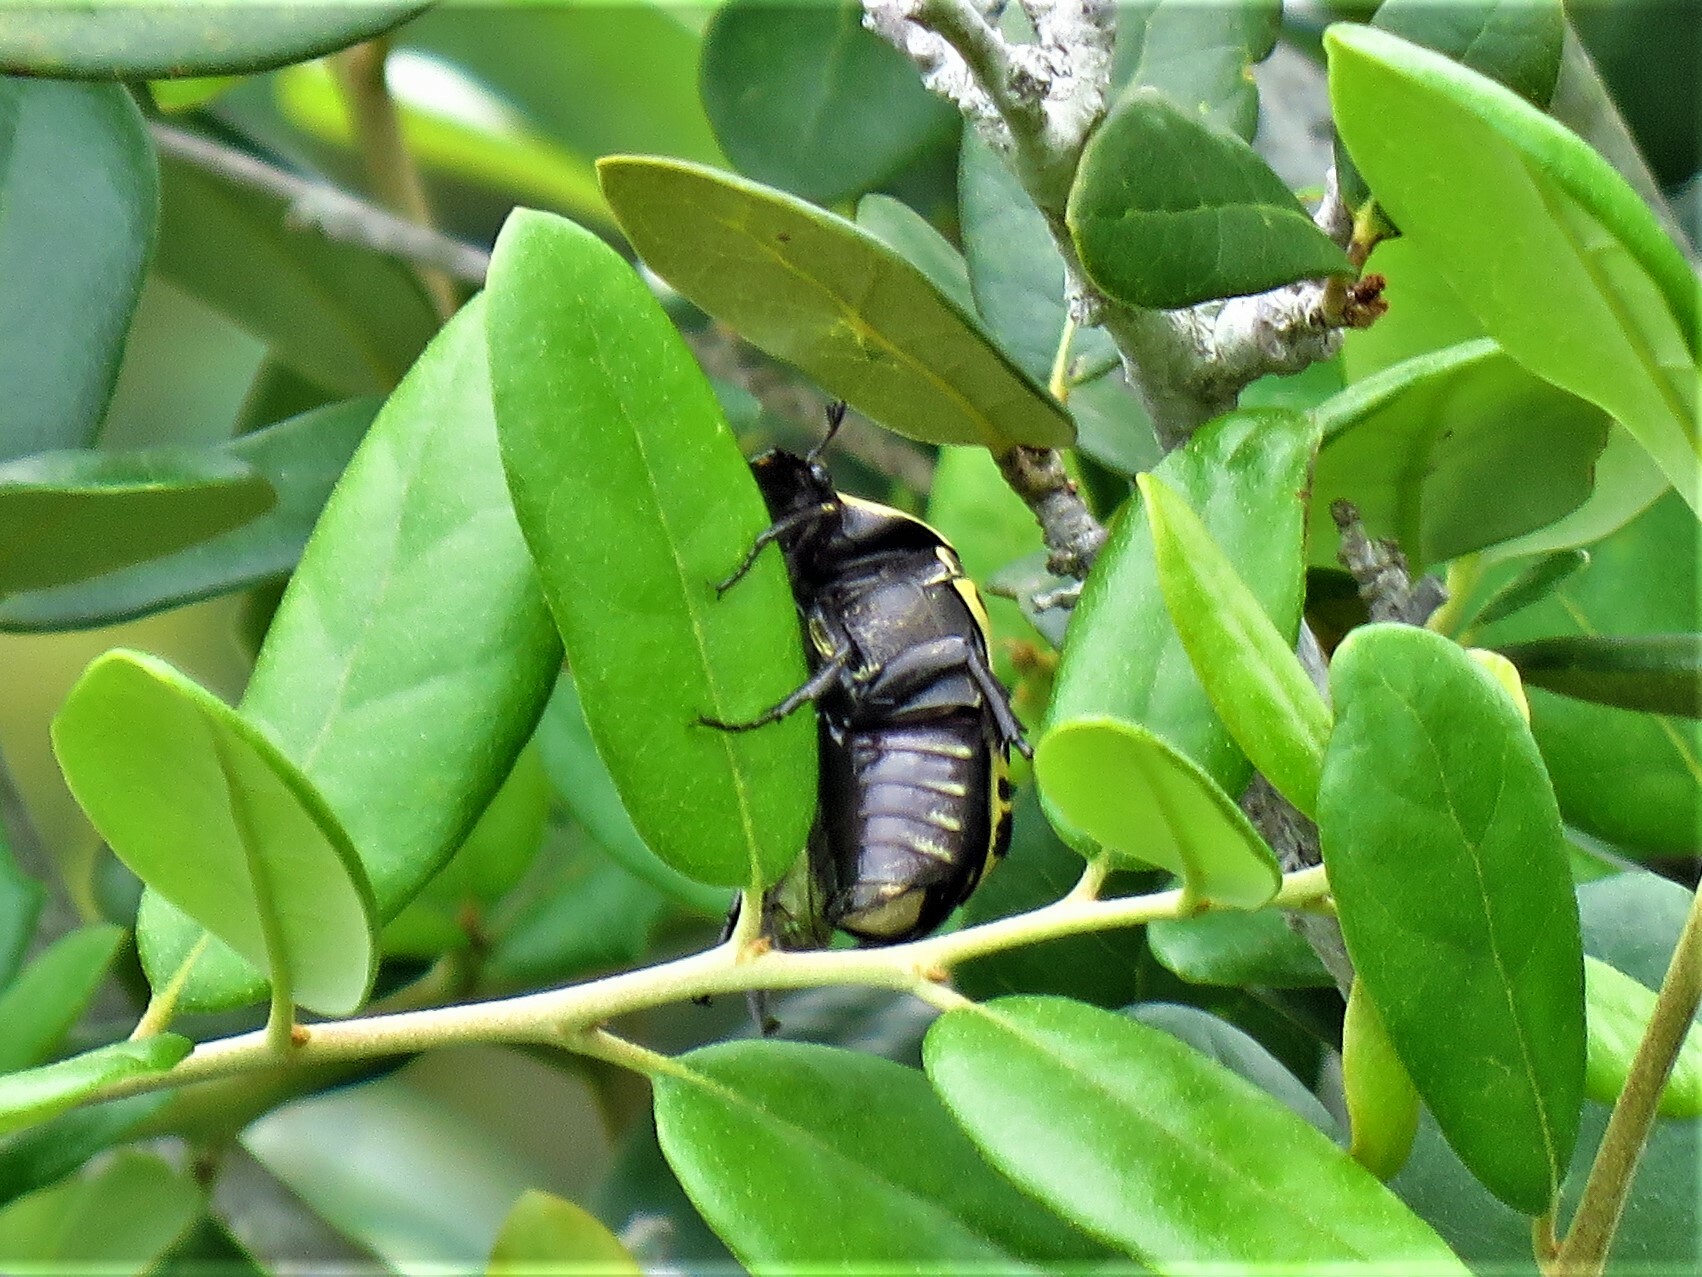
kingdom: Animalia
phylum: Arthropoda
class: Insecta
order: Coleoptera
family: Scarabaeidae
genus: Gymnetis
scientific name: Gymnetis thula
